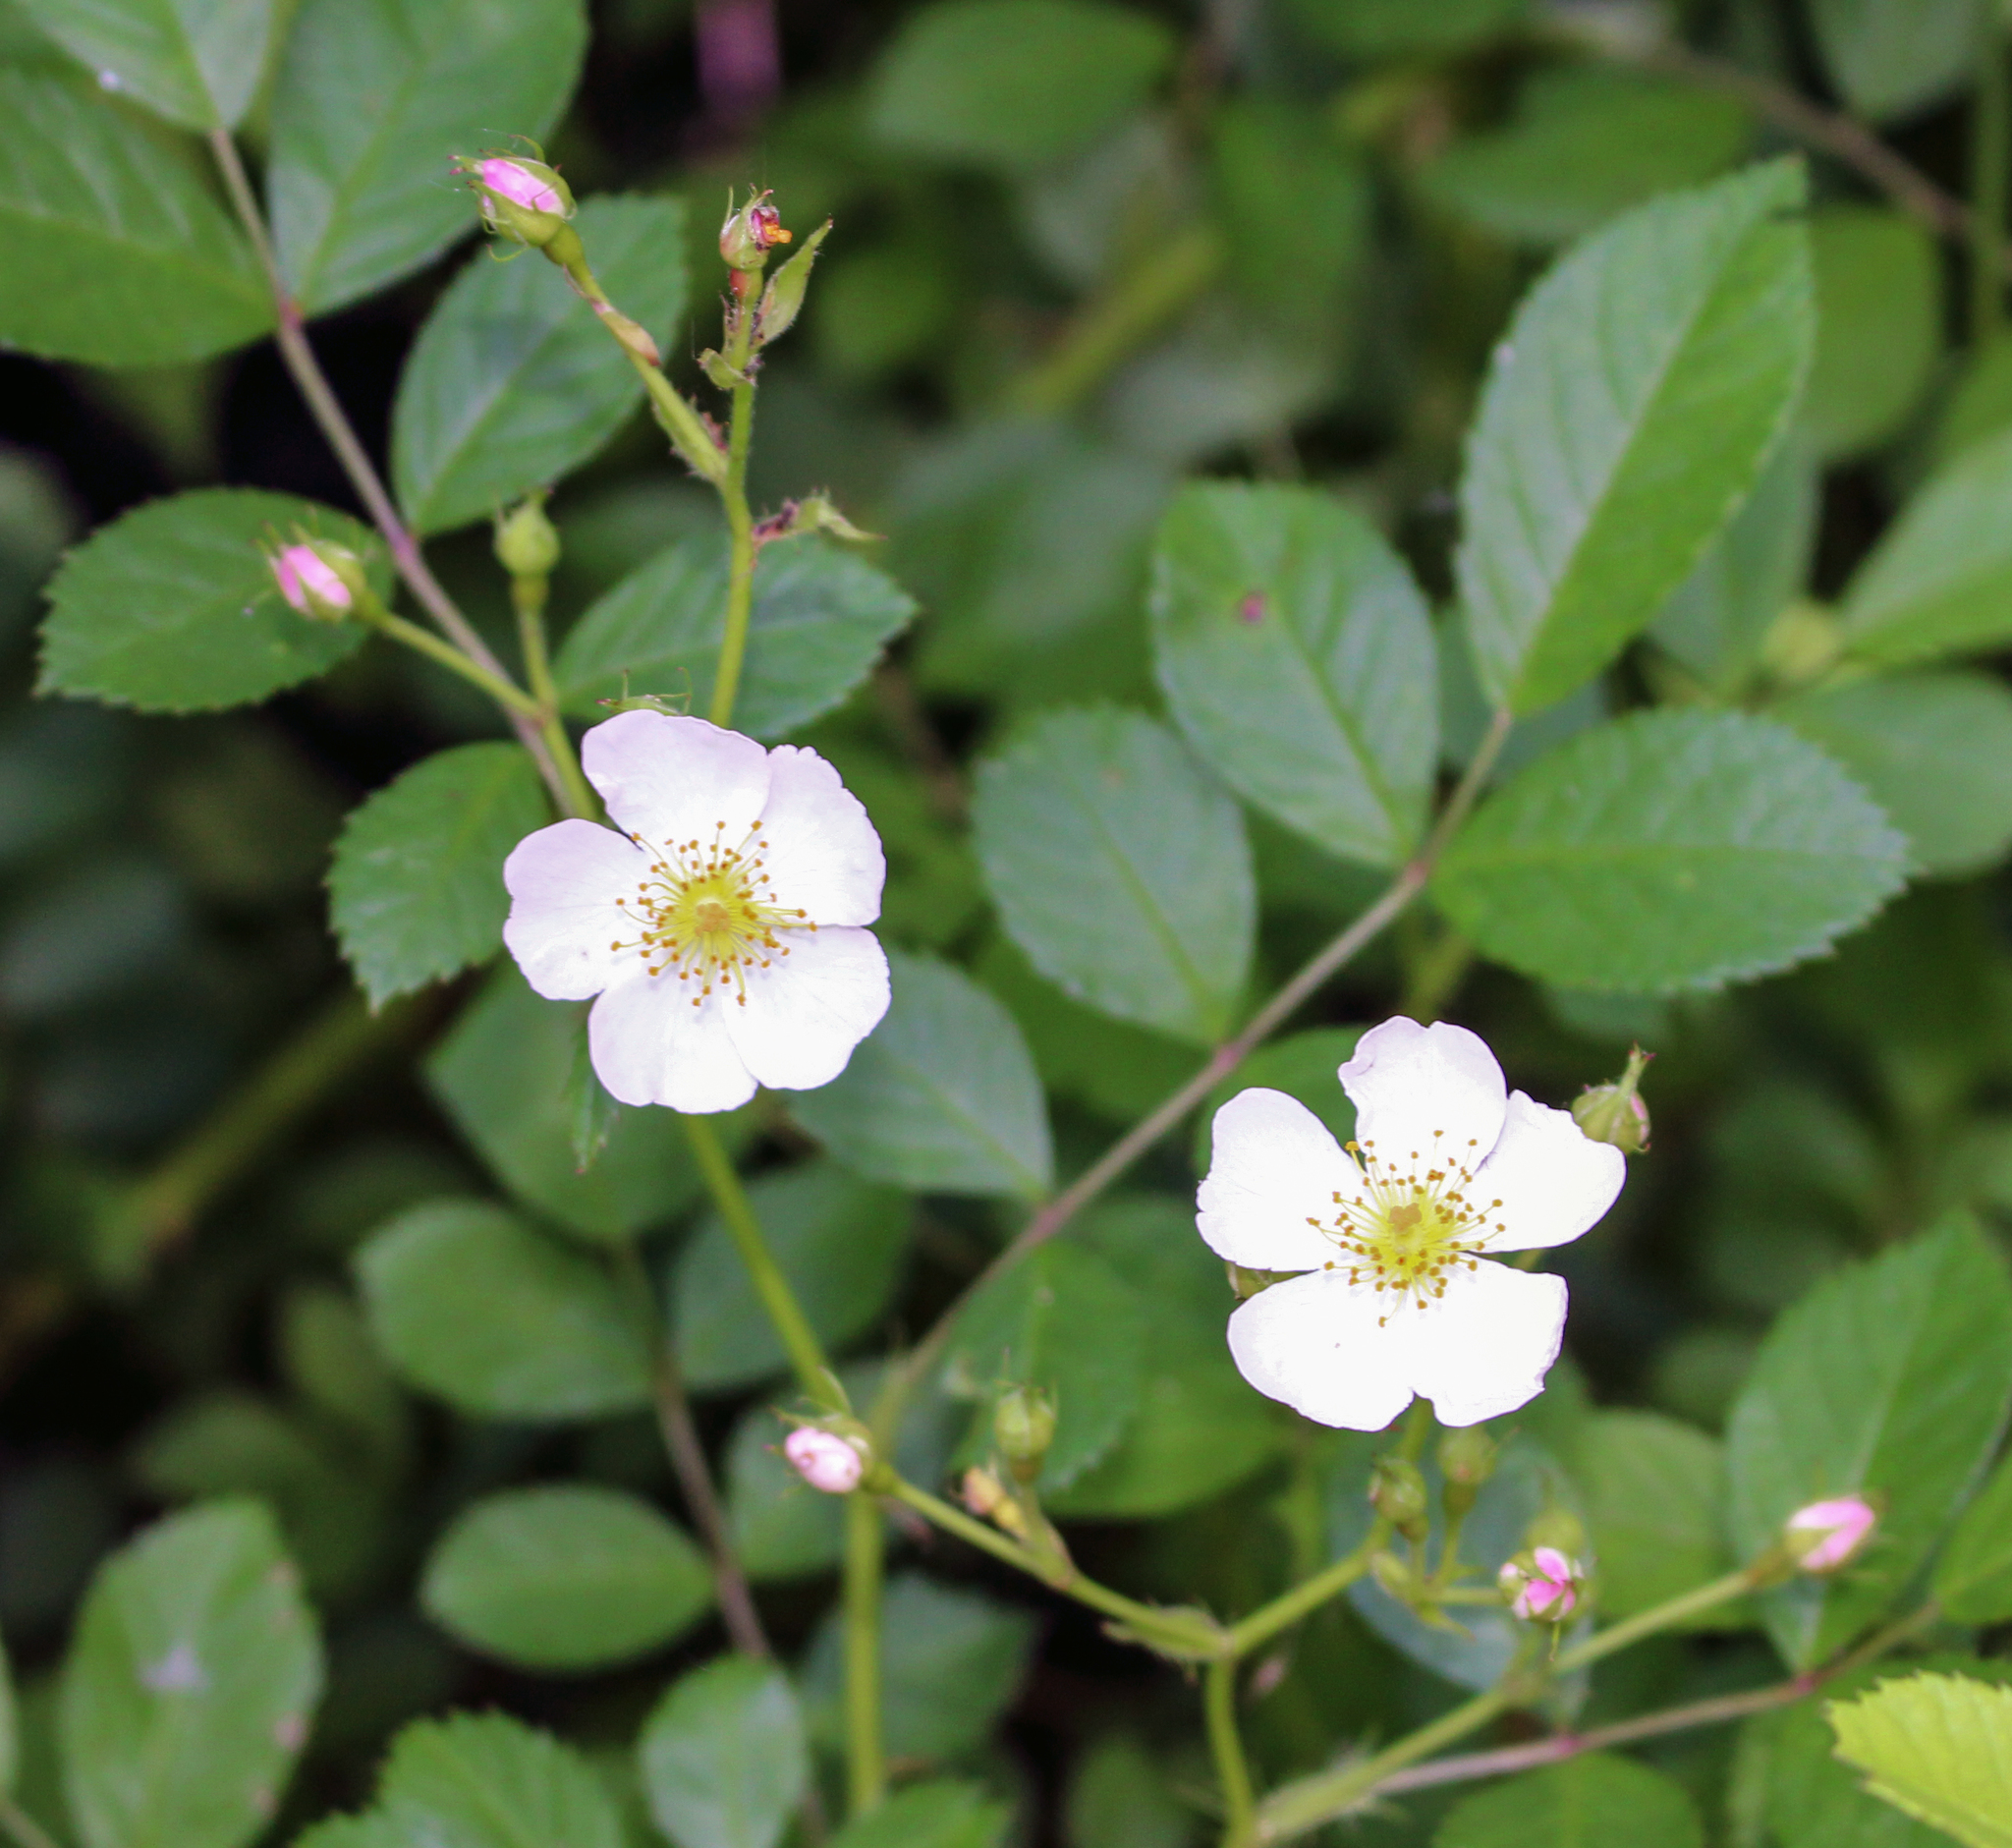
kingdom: Plantae
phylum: Tracheophyta
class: Magnoliopsida
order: Rosales
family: Rosaceae
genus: Rosa
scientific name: Rosa multiflora
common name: Multiflora rose
